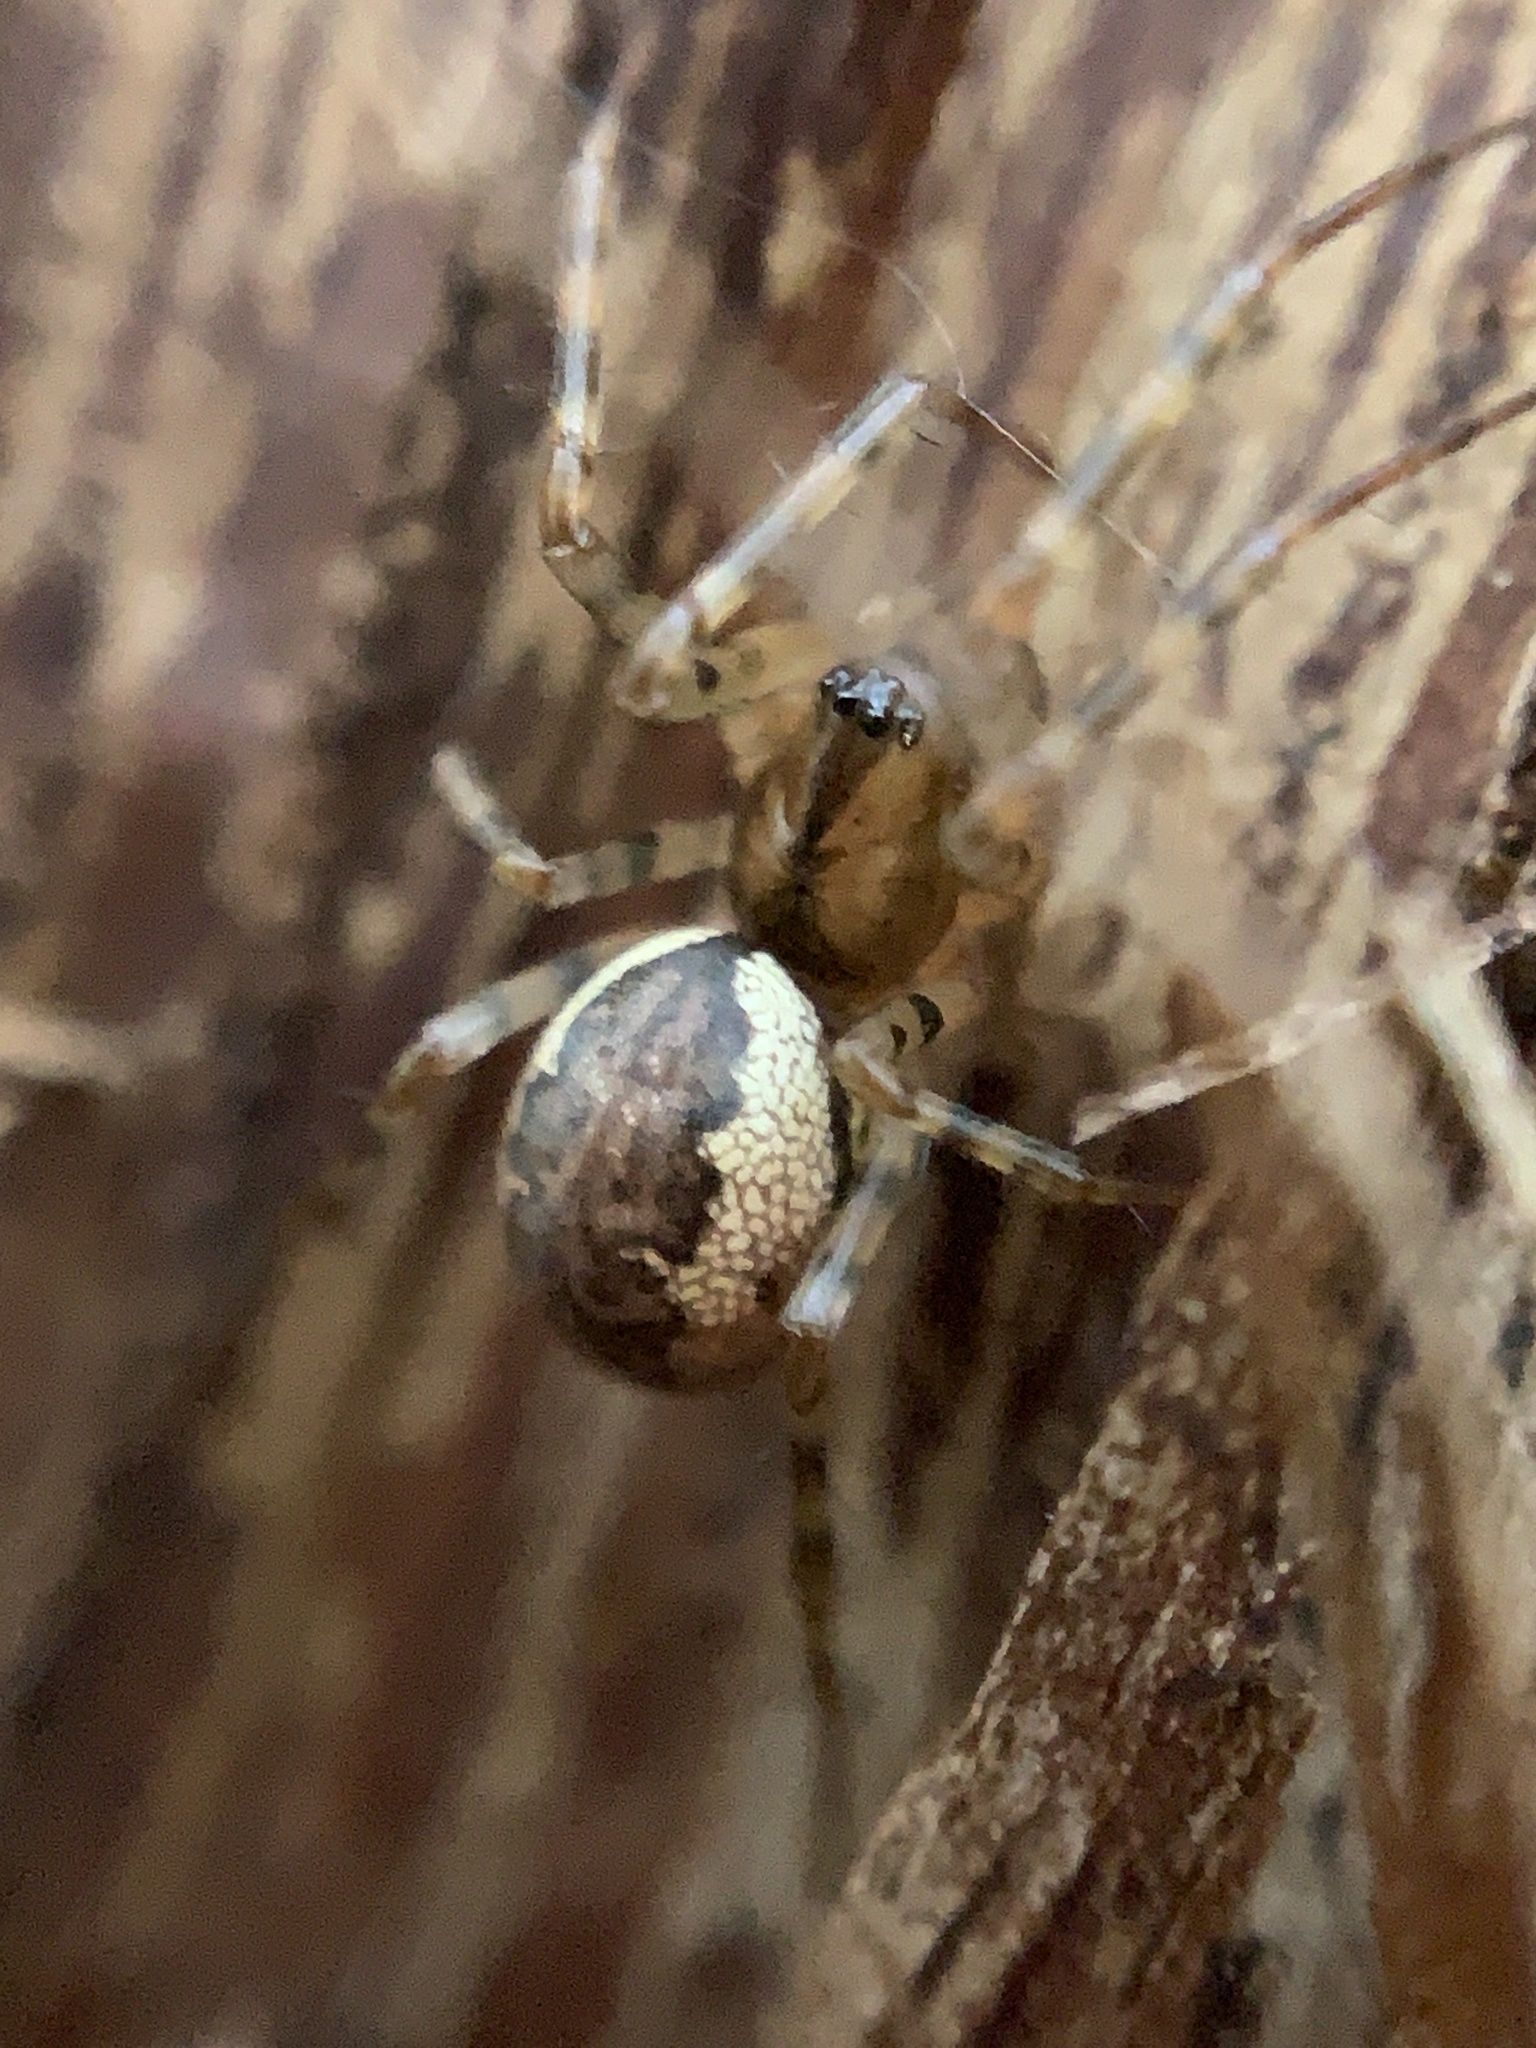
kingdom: Animalia
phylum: Arthropoda
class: Arachnida
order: Araneae
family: Linyphiidae
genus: Neriene
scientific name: Neriene montana
